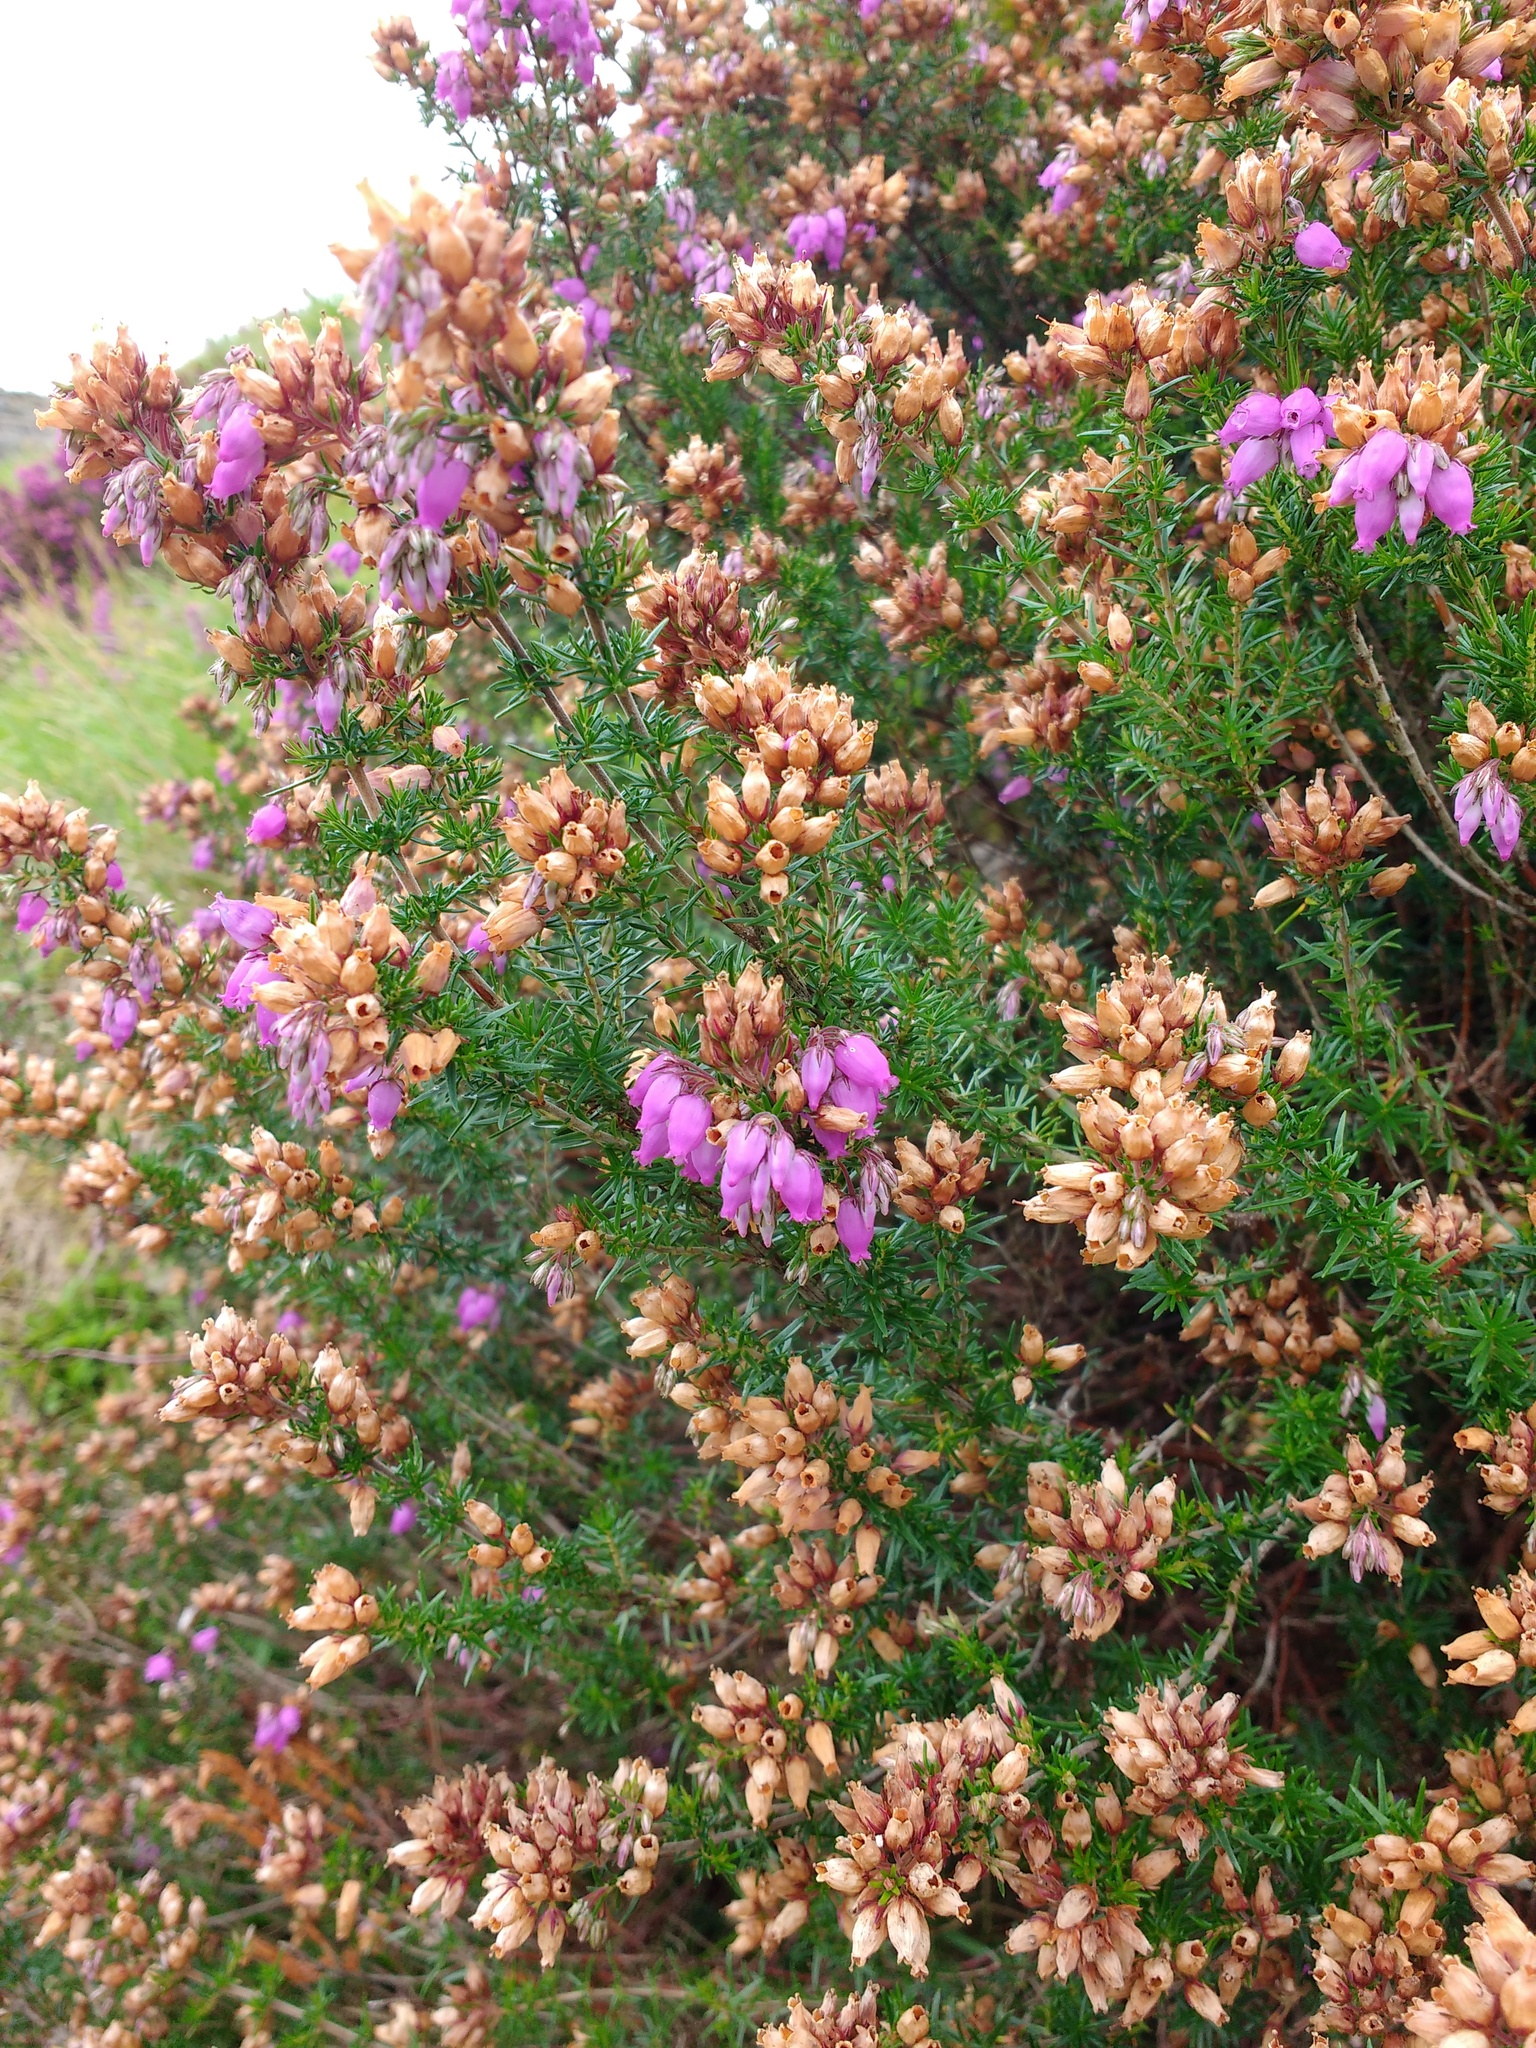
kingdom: Plantae
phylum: Tracheophyta
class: Magnoliopsida
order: Ericales
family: Ericaceae
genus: Erica
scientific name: Erica cinerea
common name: Bell heather
